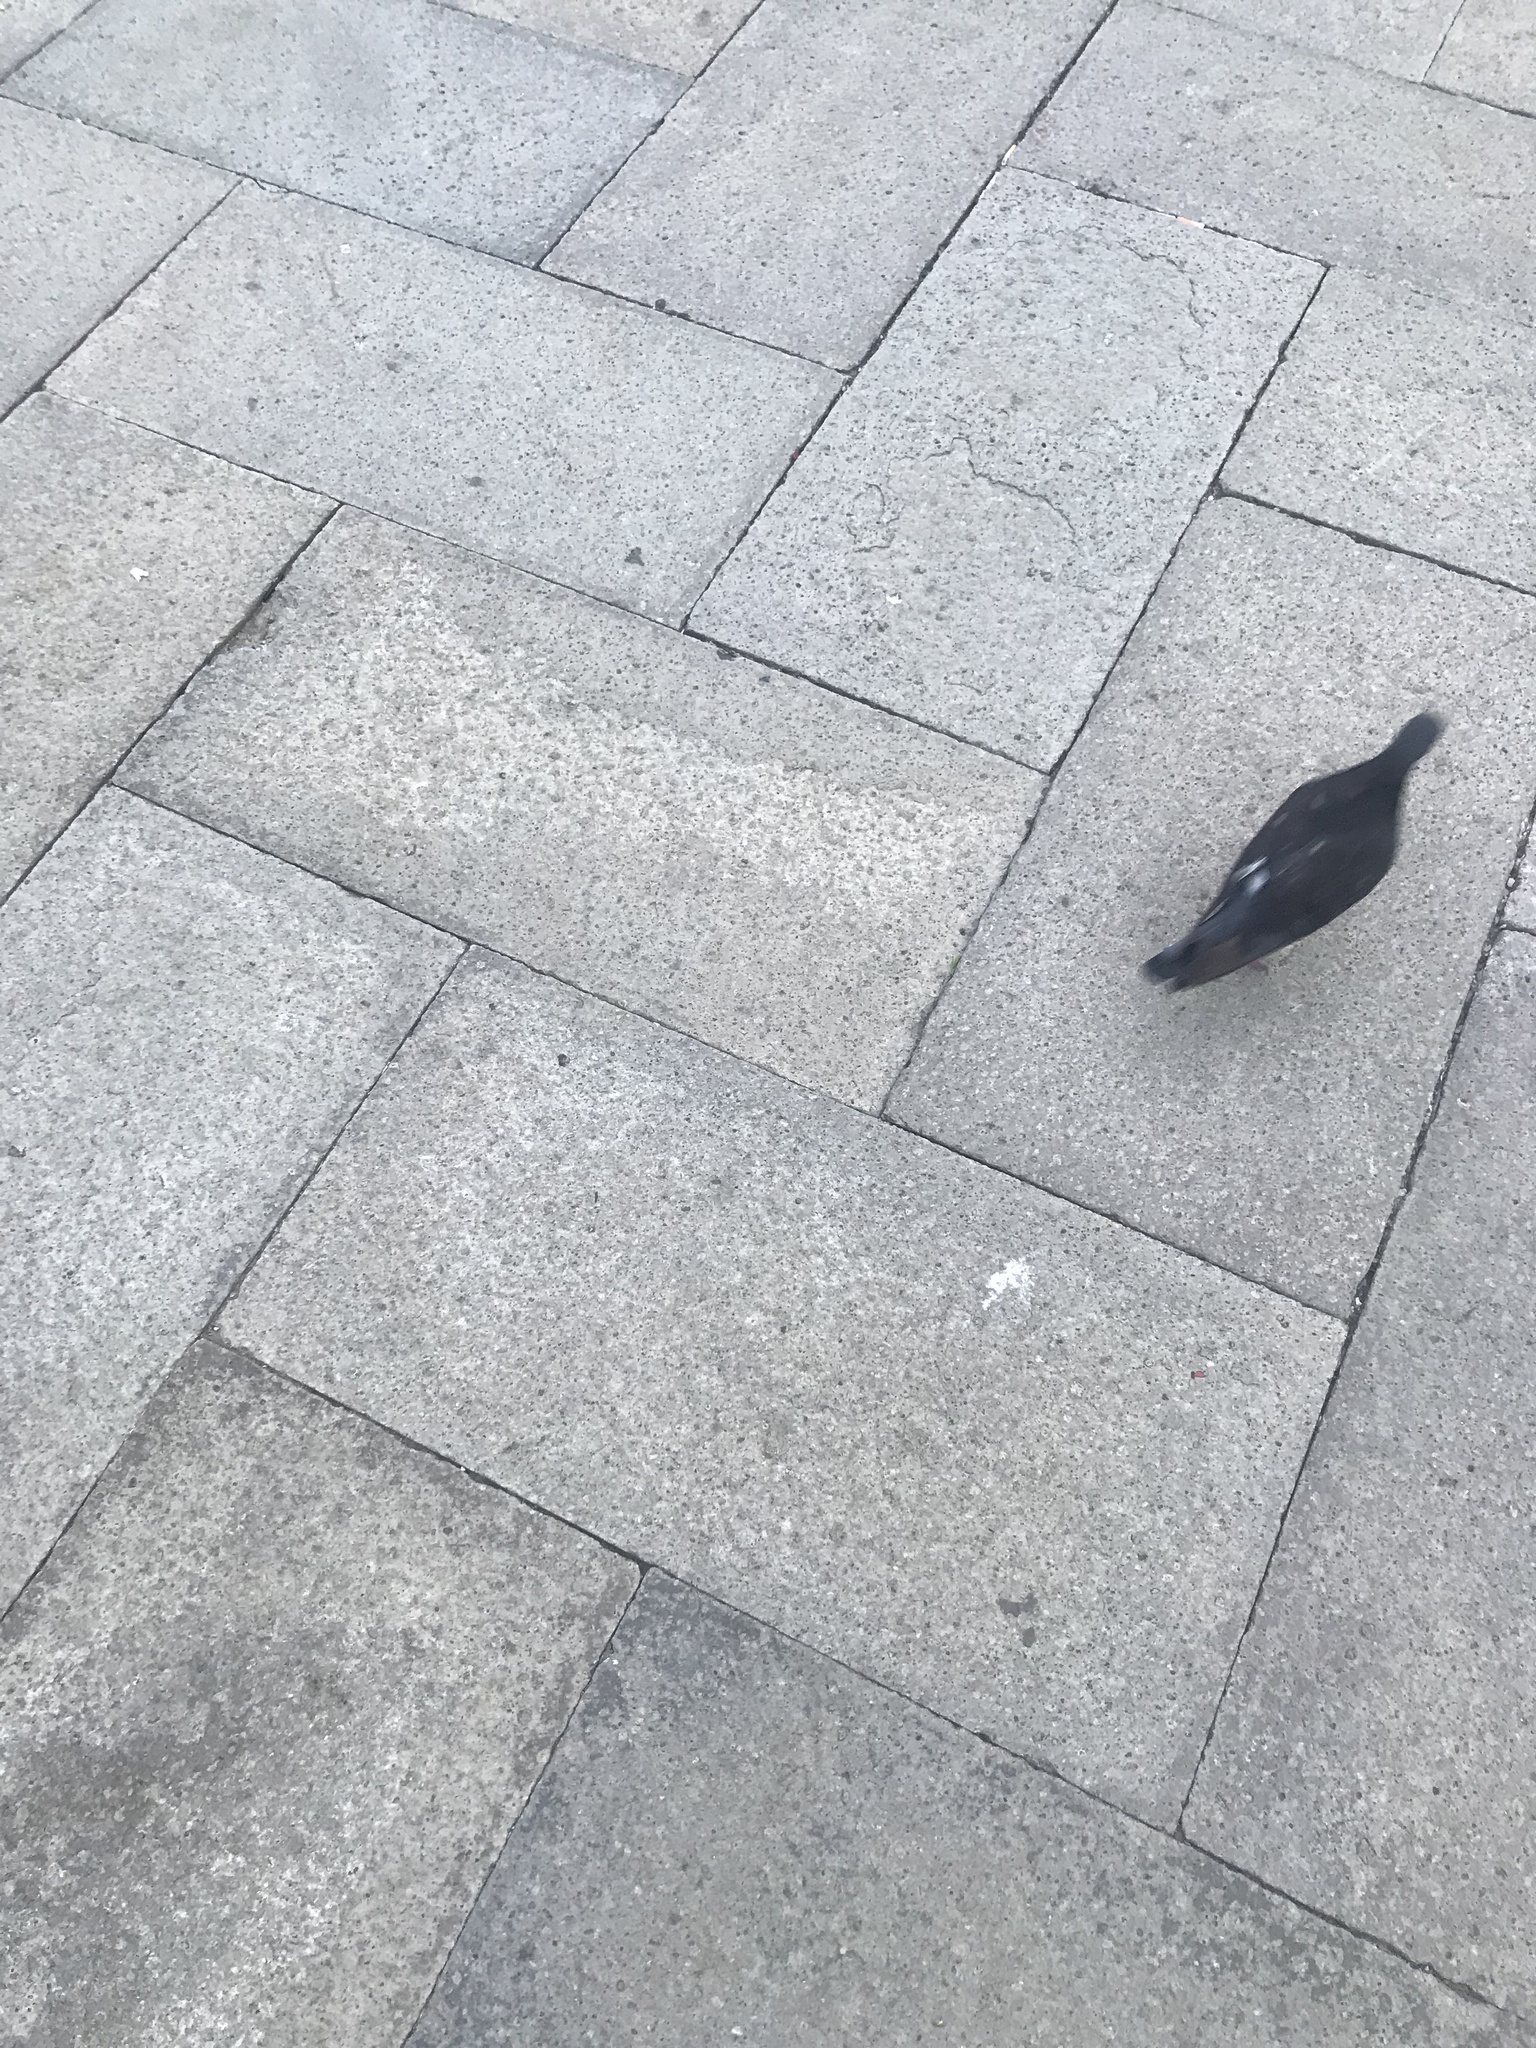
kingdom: Animalia
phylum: Chordata
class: Aves
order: Columbiformes
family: Columbidae
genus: Columba
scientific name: Columba livia
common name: Rock pigeon
